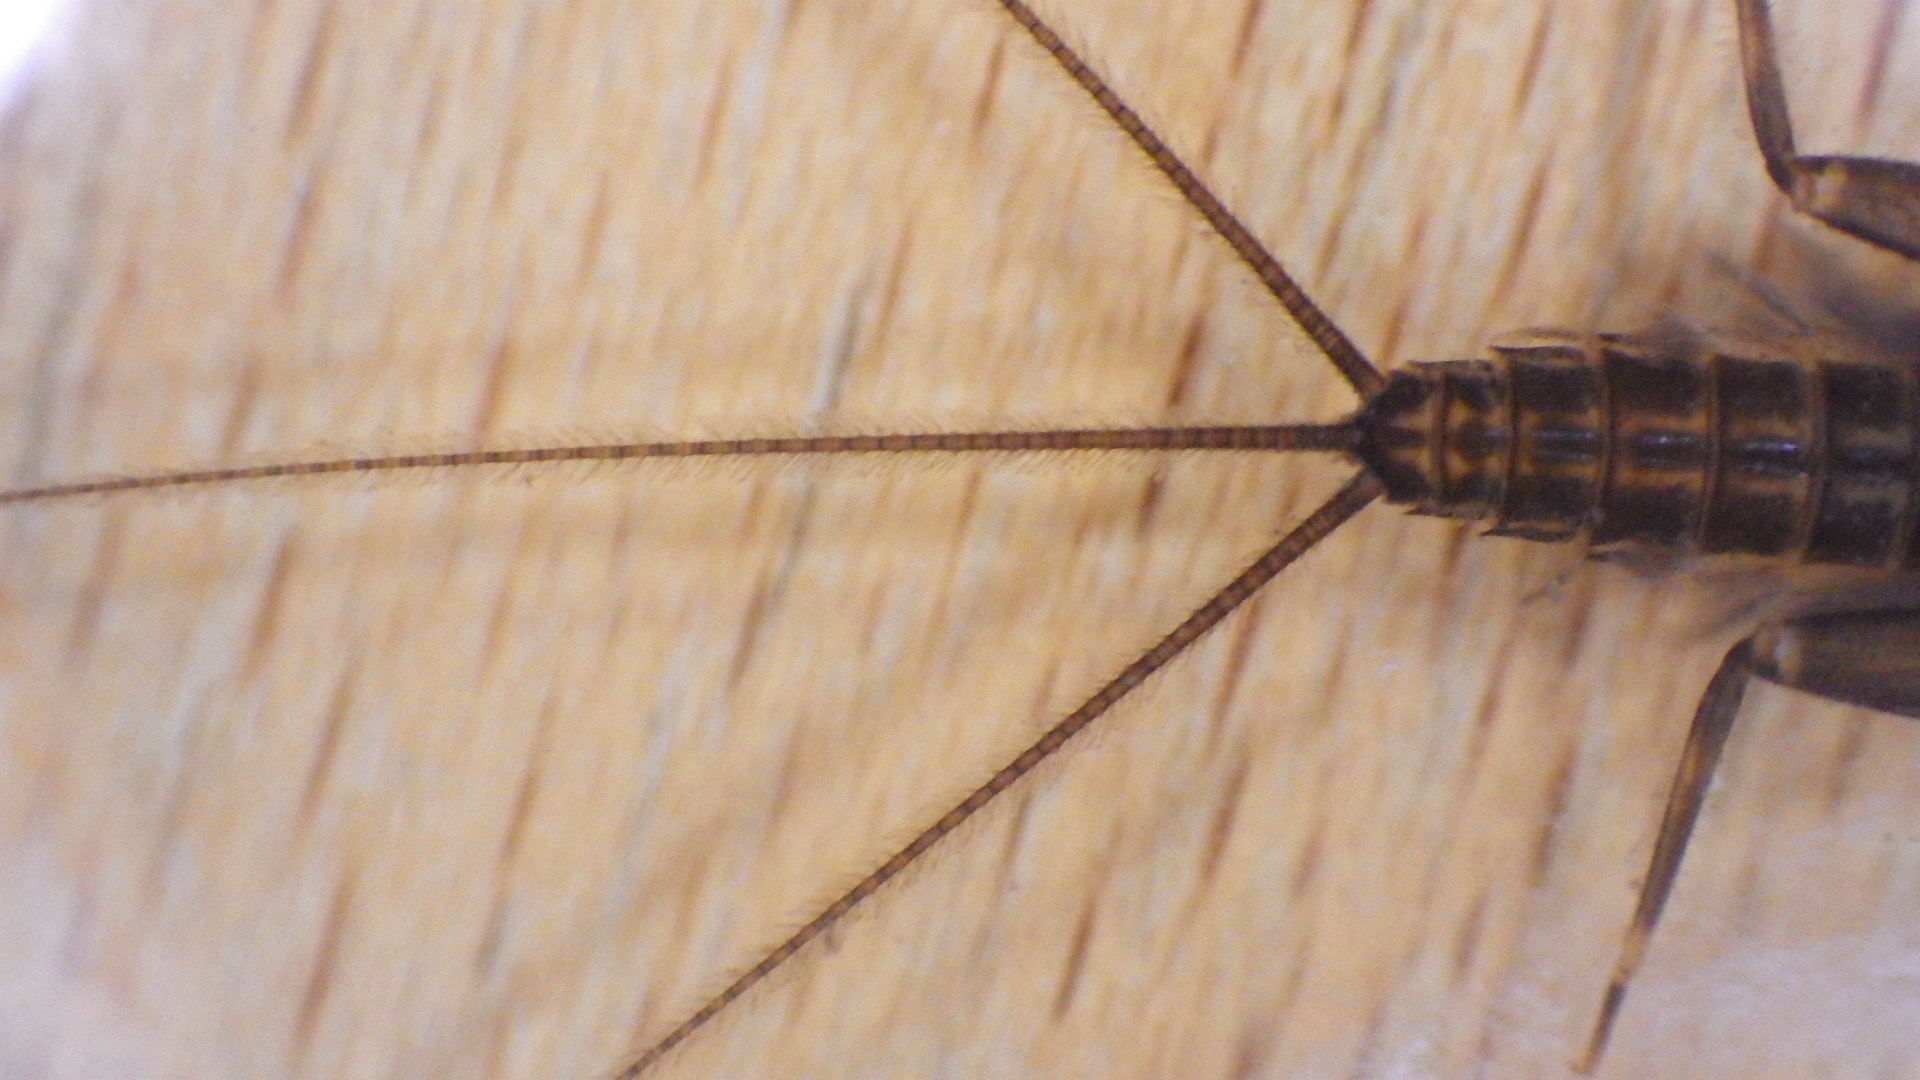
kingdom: Animalia
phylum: Arthropoda
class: Insecta
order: Ephemeroptera
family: Heptageniidae
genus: Stenacron
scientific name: Stenacron interpunctatum
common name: Orange cahill
